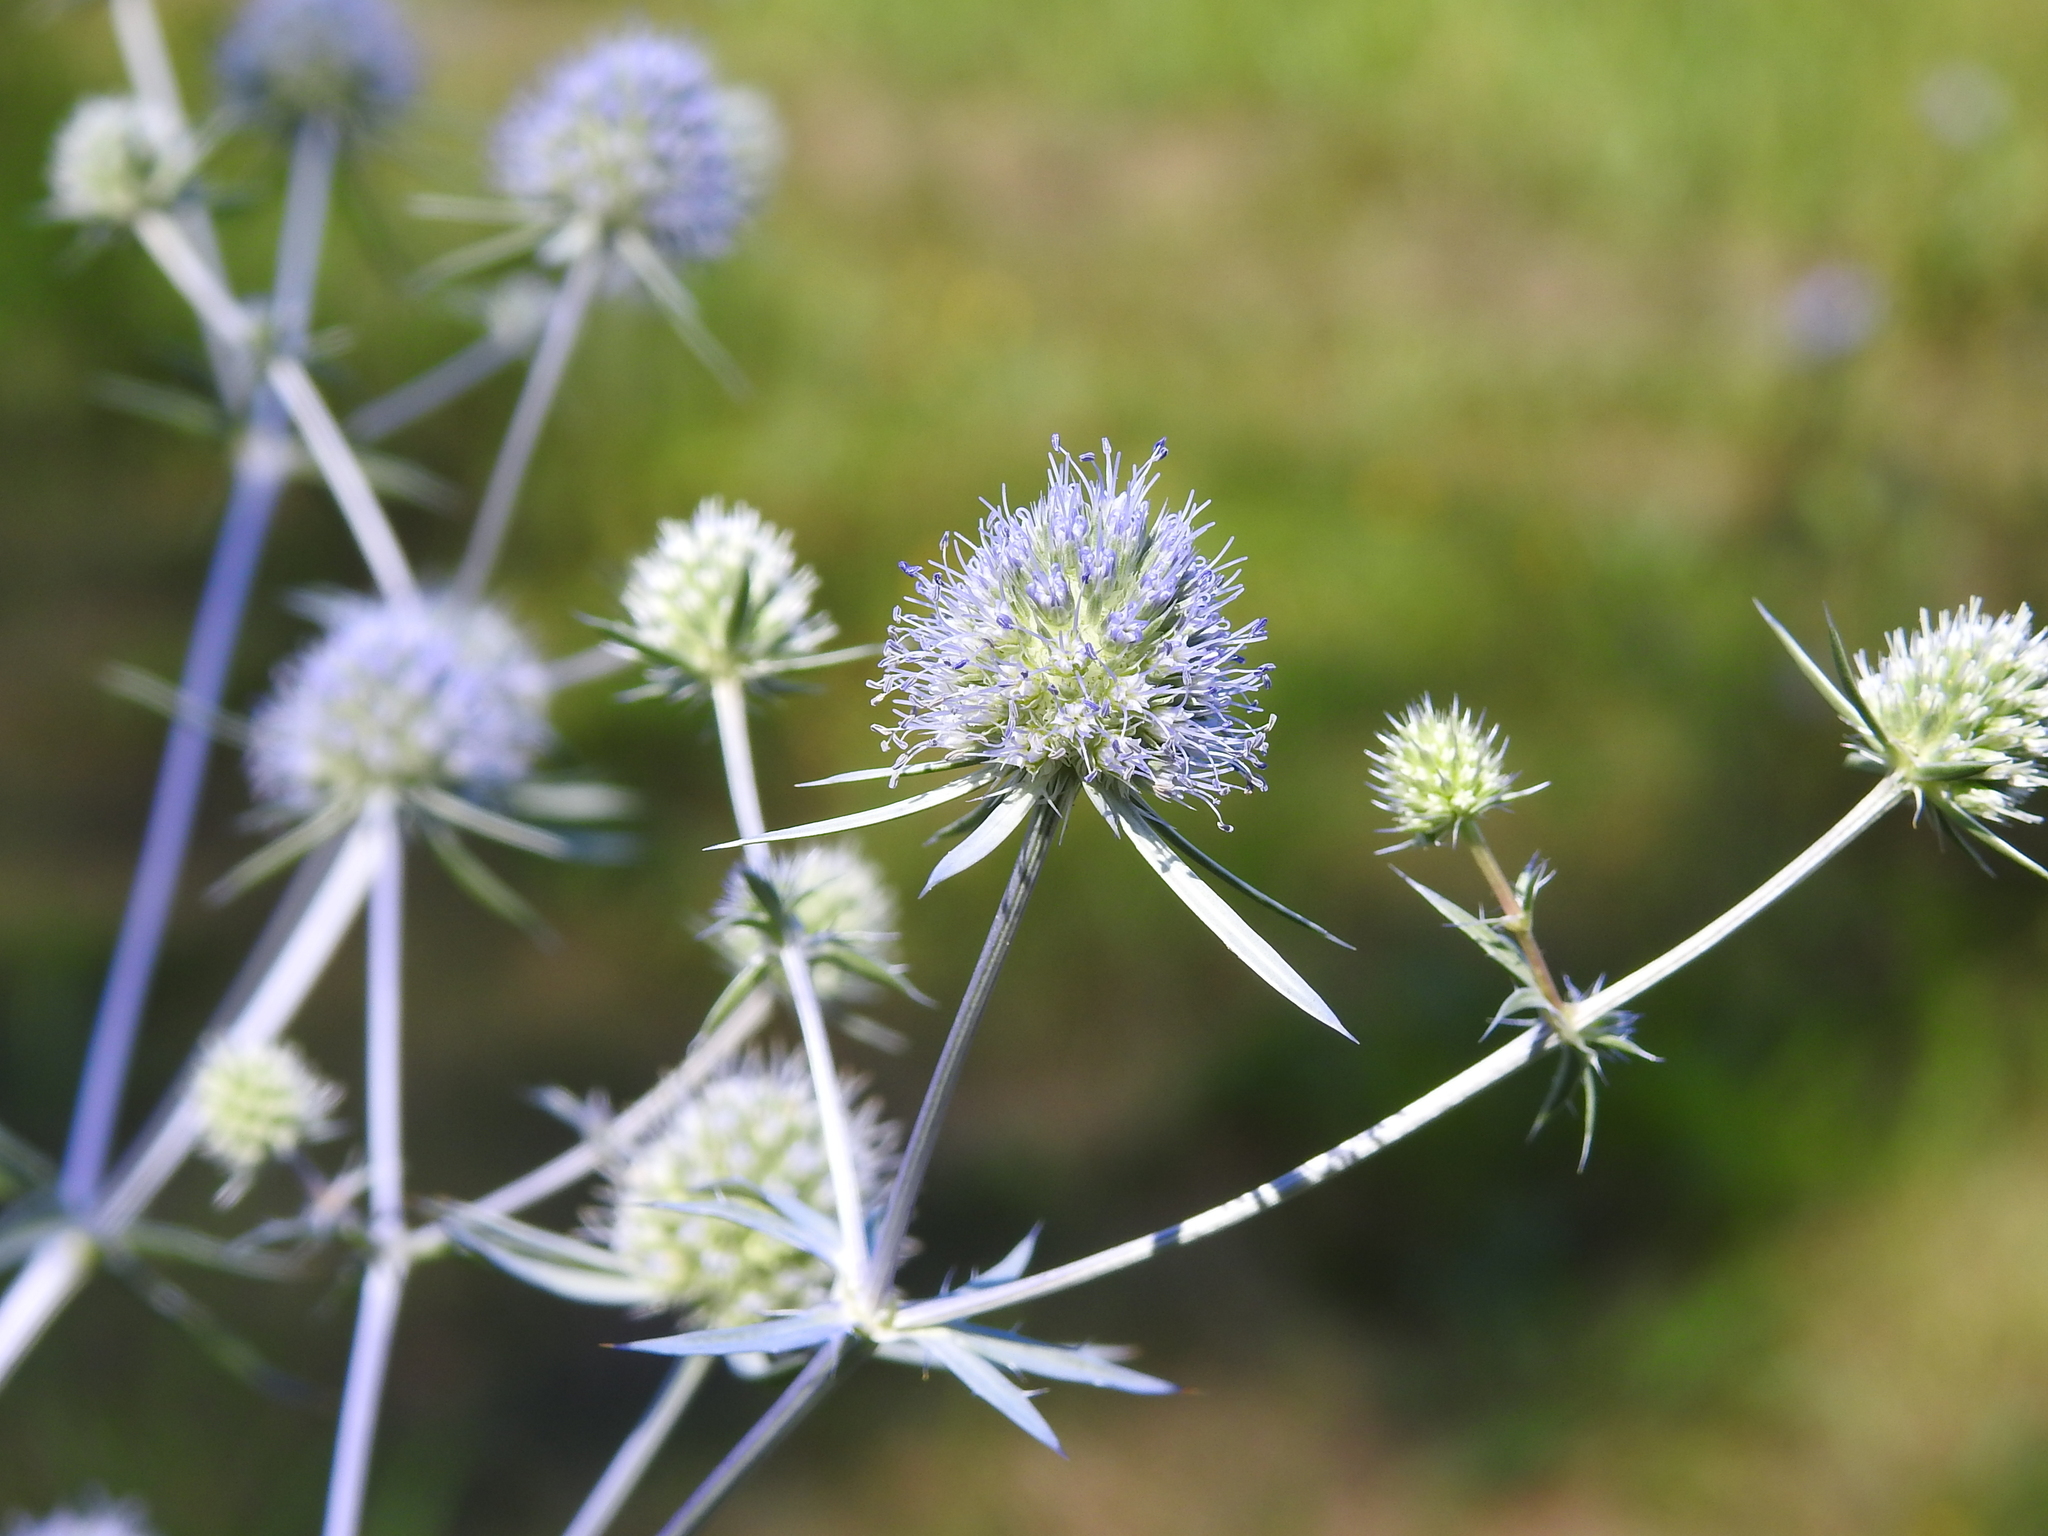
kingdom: Plantae
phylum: Tracheophyta
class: Magnoliopsida
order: Apiales
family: Apiaceae
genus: Eryngium
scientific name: Eryngium planum
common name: Blue eryngo
